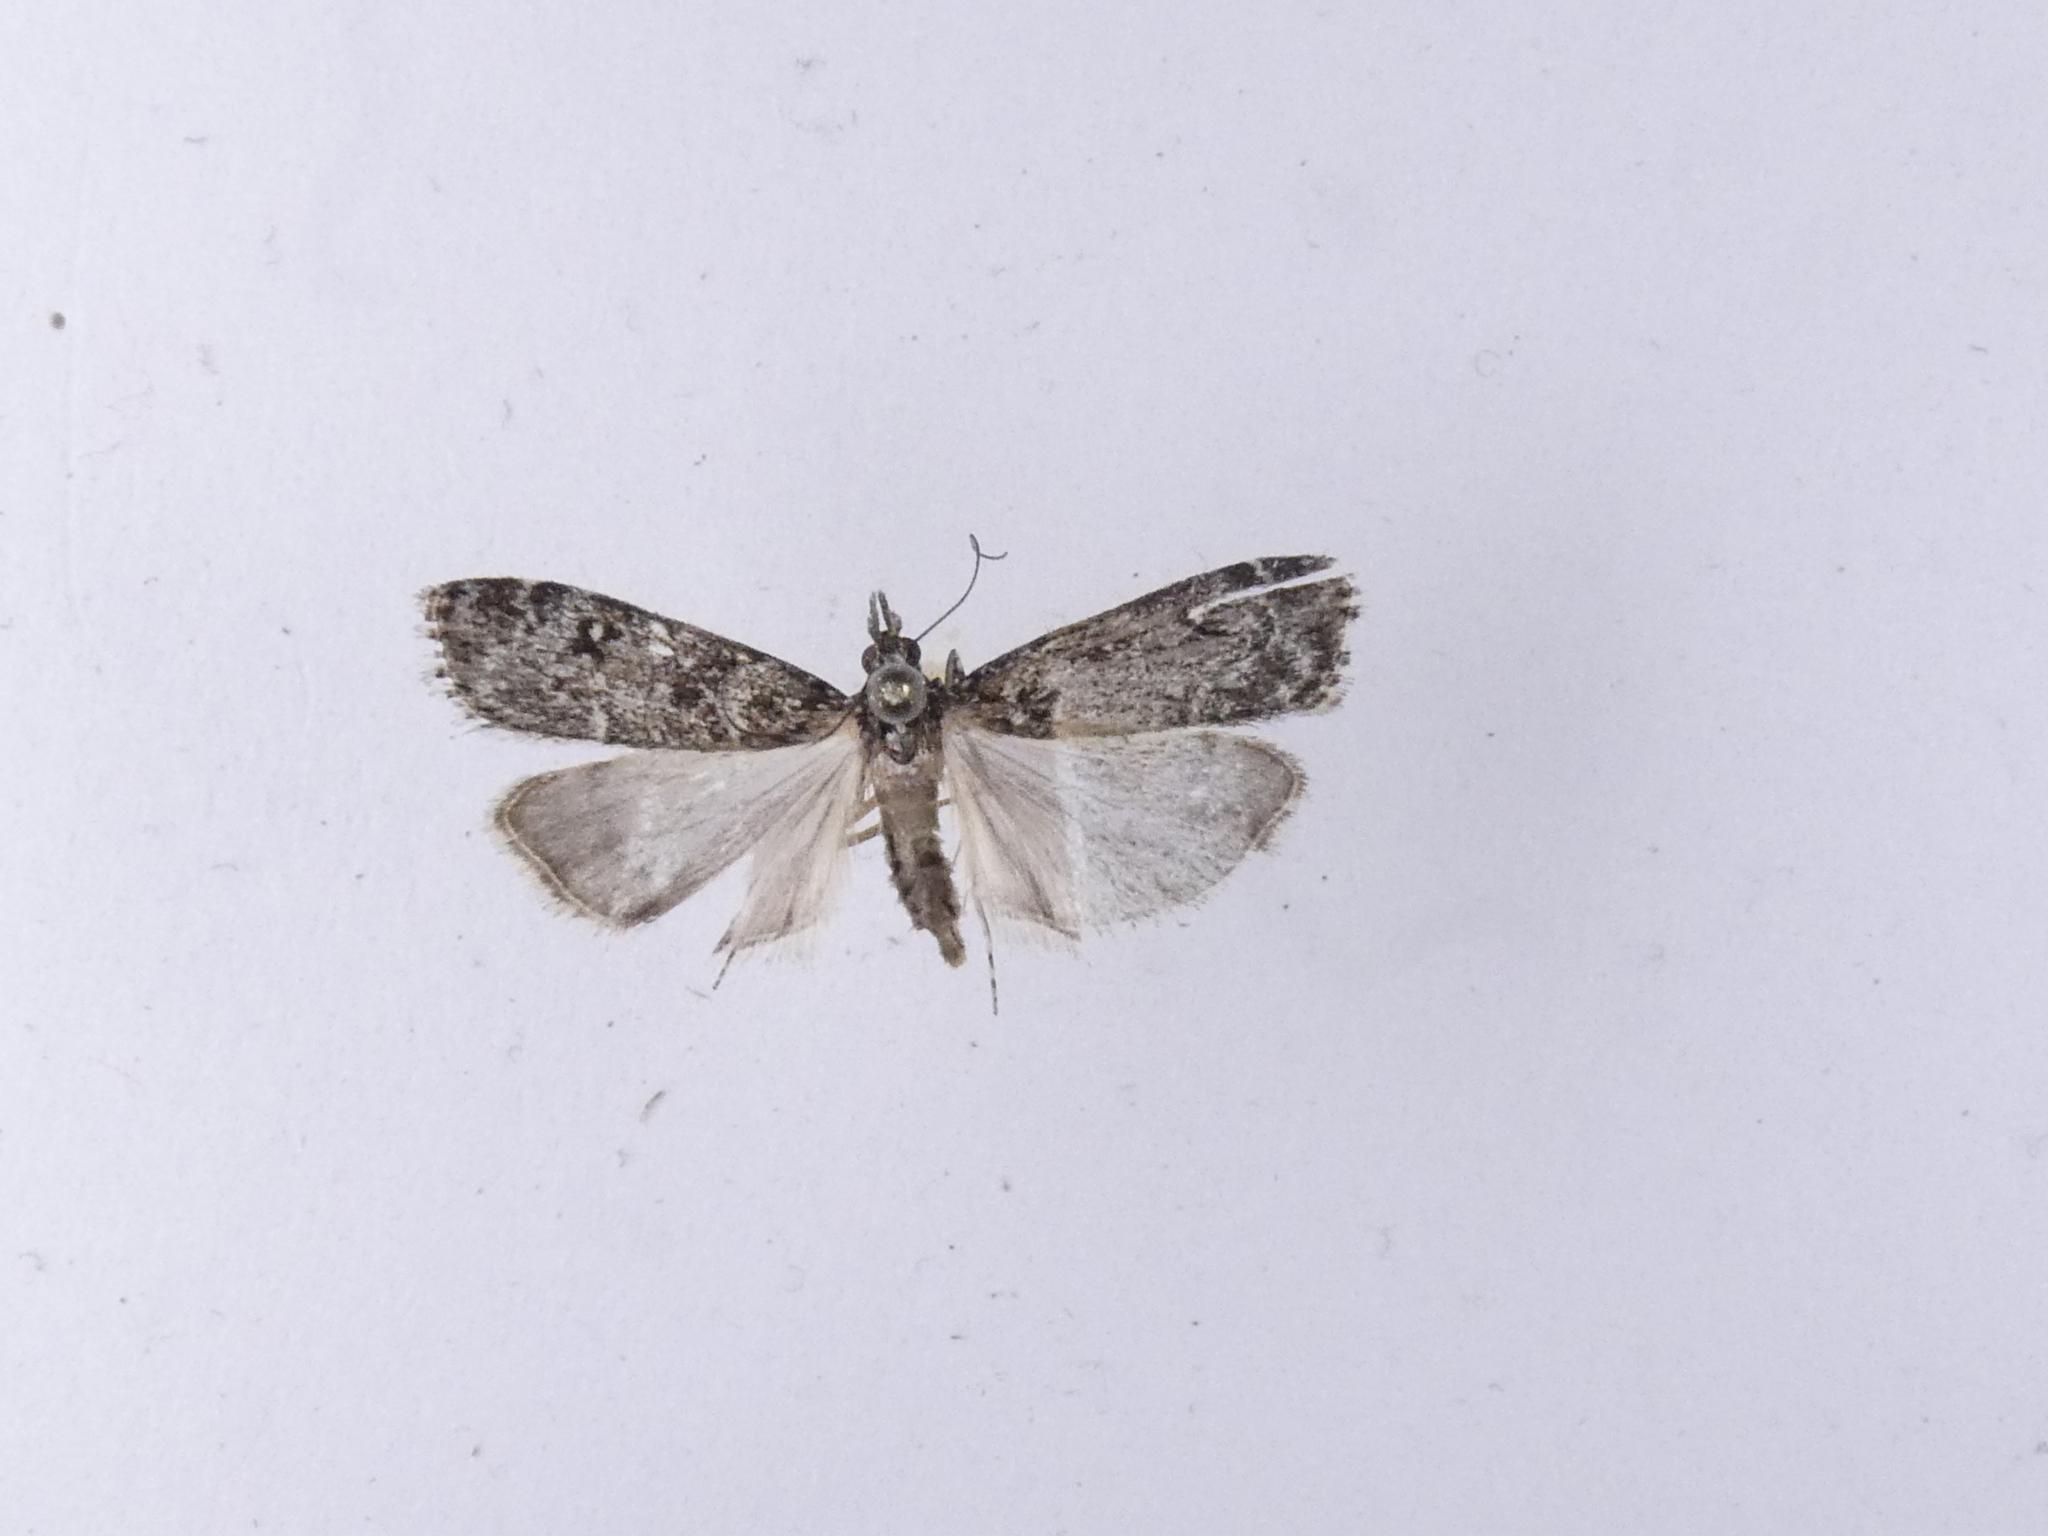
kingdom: Animalia
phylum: Arthropoda
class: Insecta
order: Lepidoptera
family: Crambidae
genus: Eudonia
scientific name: Eudonia philerga
